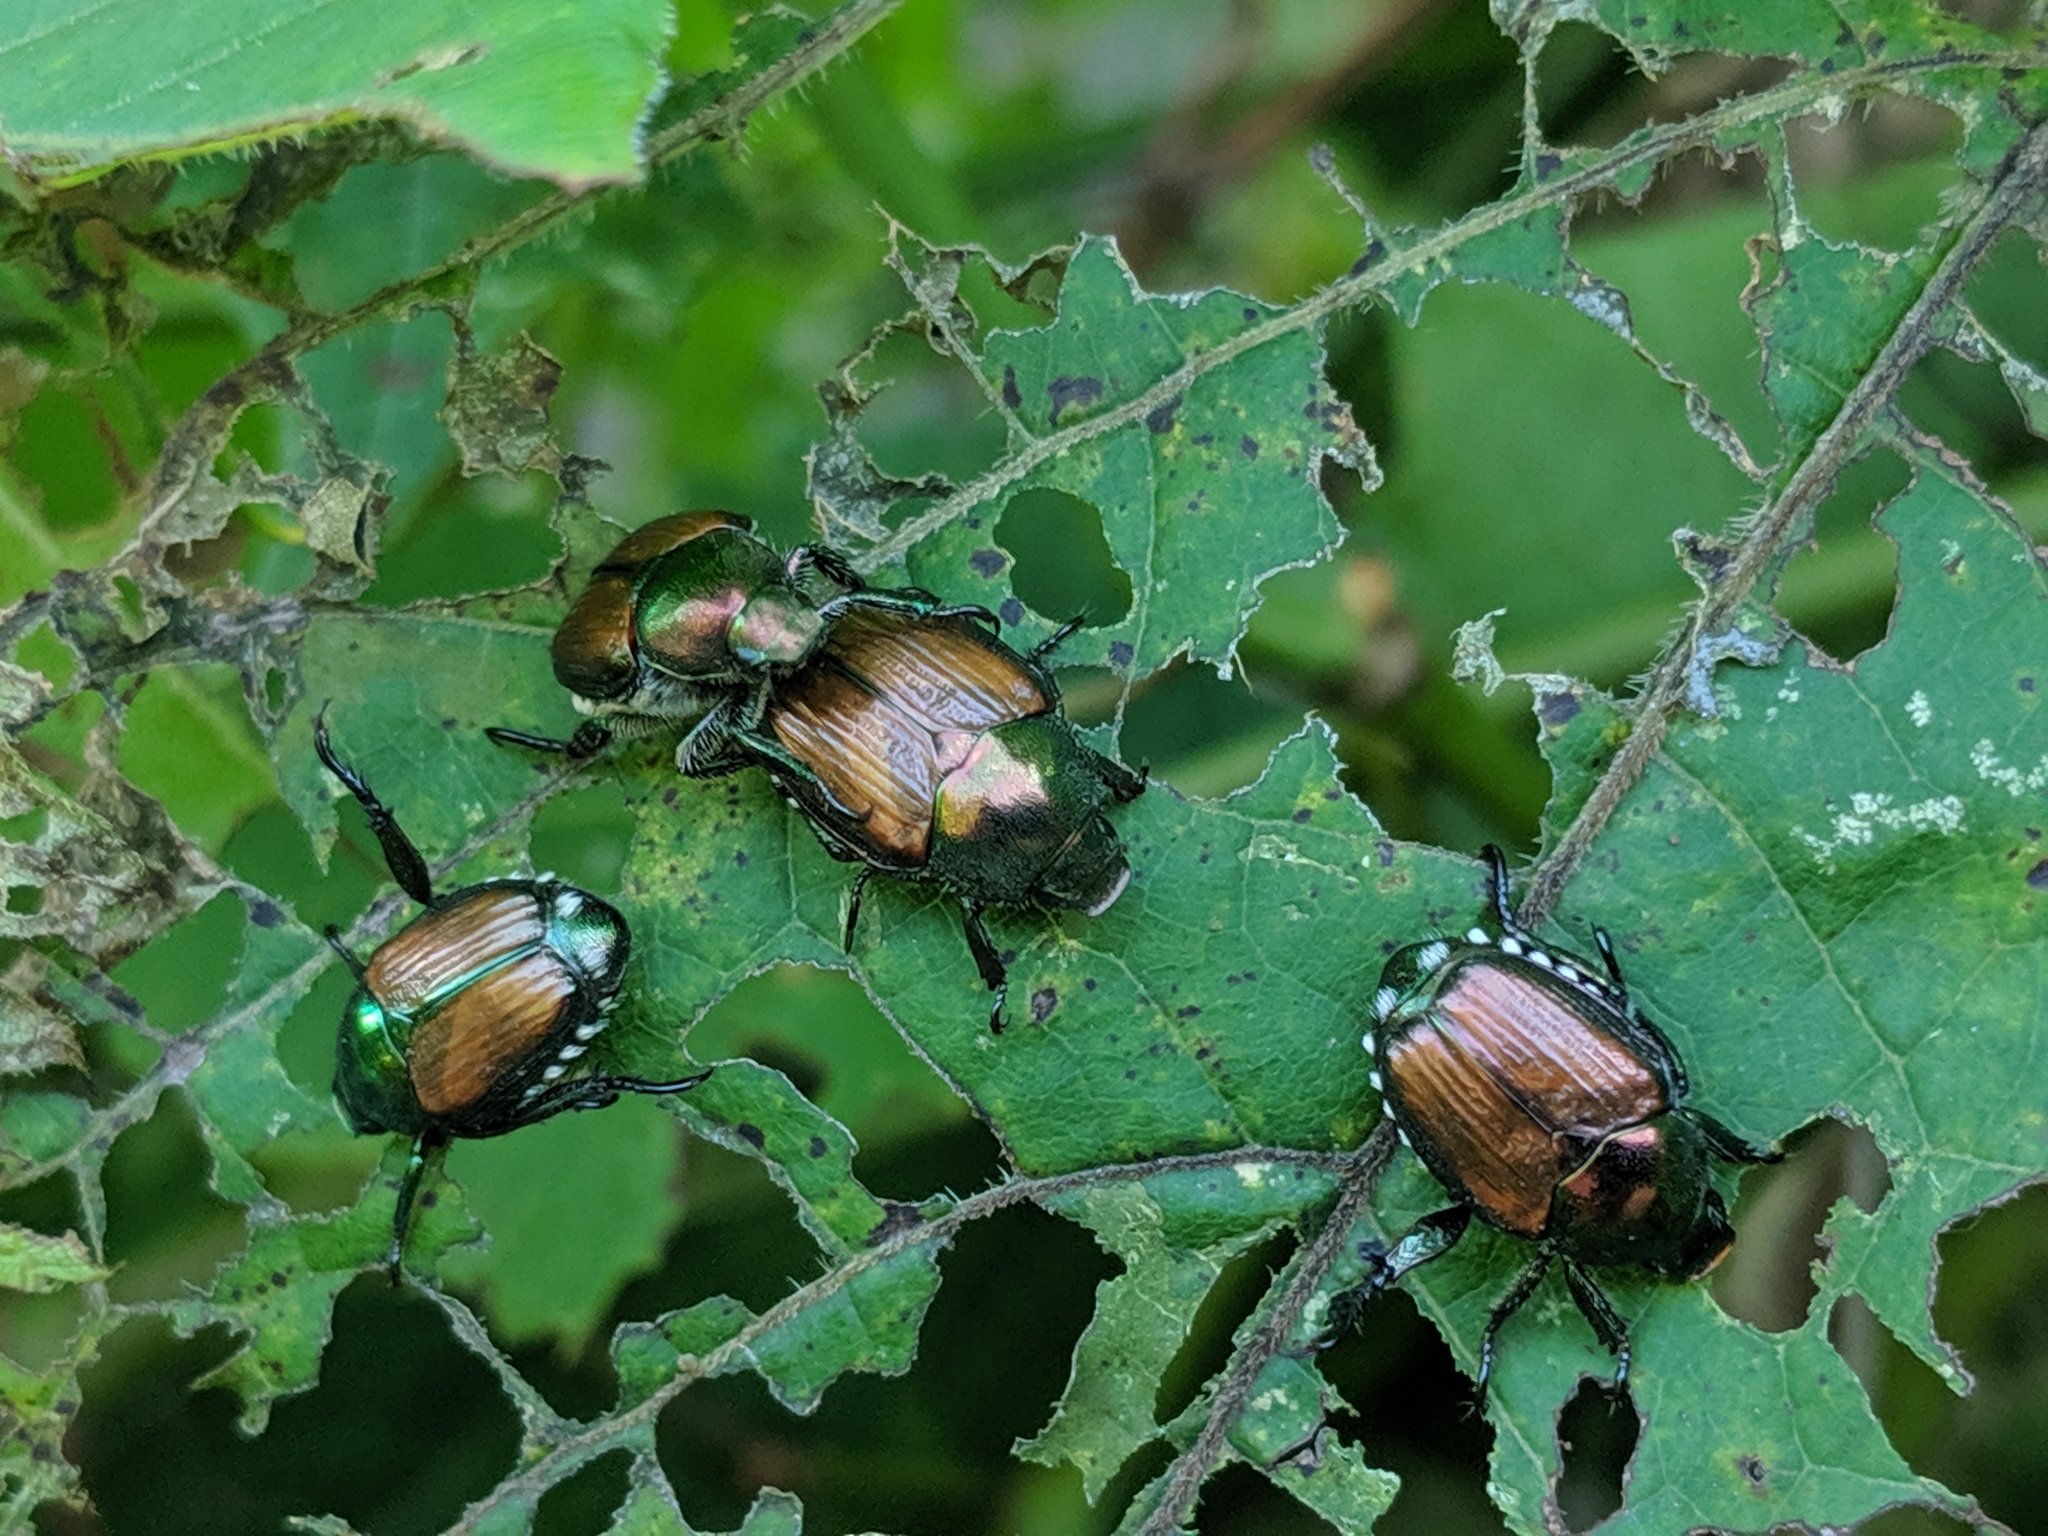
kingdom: Animalia
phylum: Arthropoda
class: Insecta
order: Coleoptera
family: Scarabaeidae
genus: Popillia
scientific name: Popillia japonica
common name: Japanese beetle
